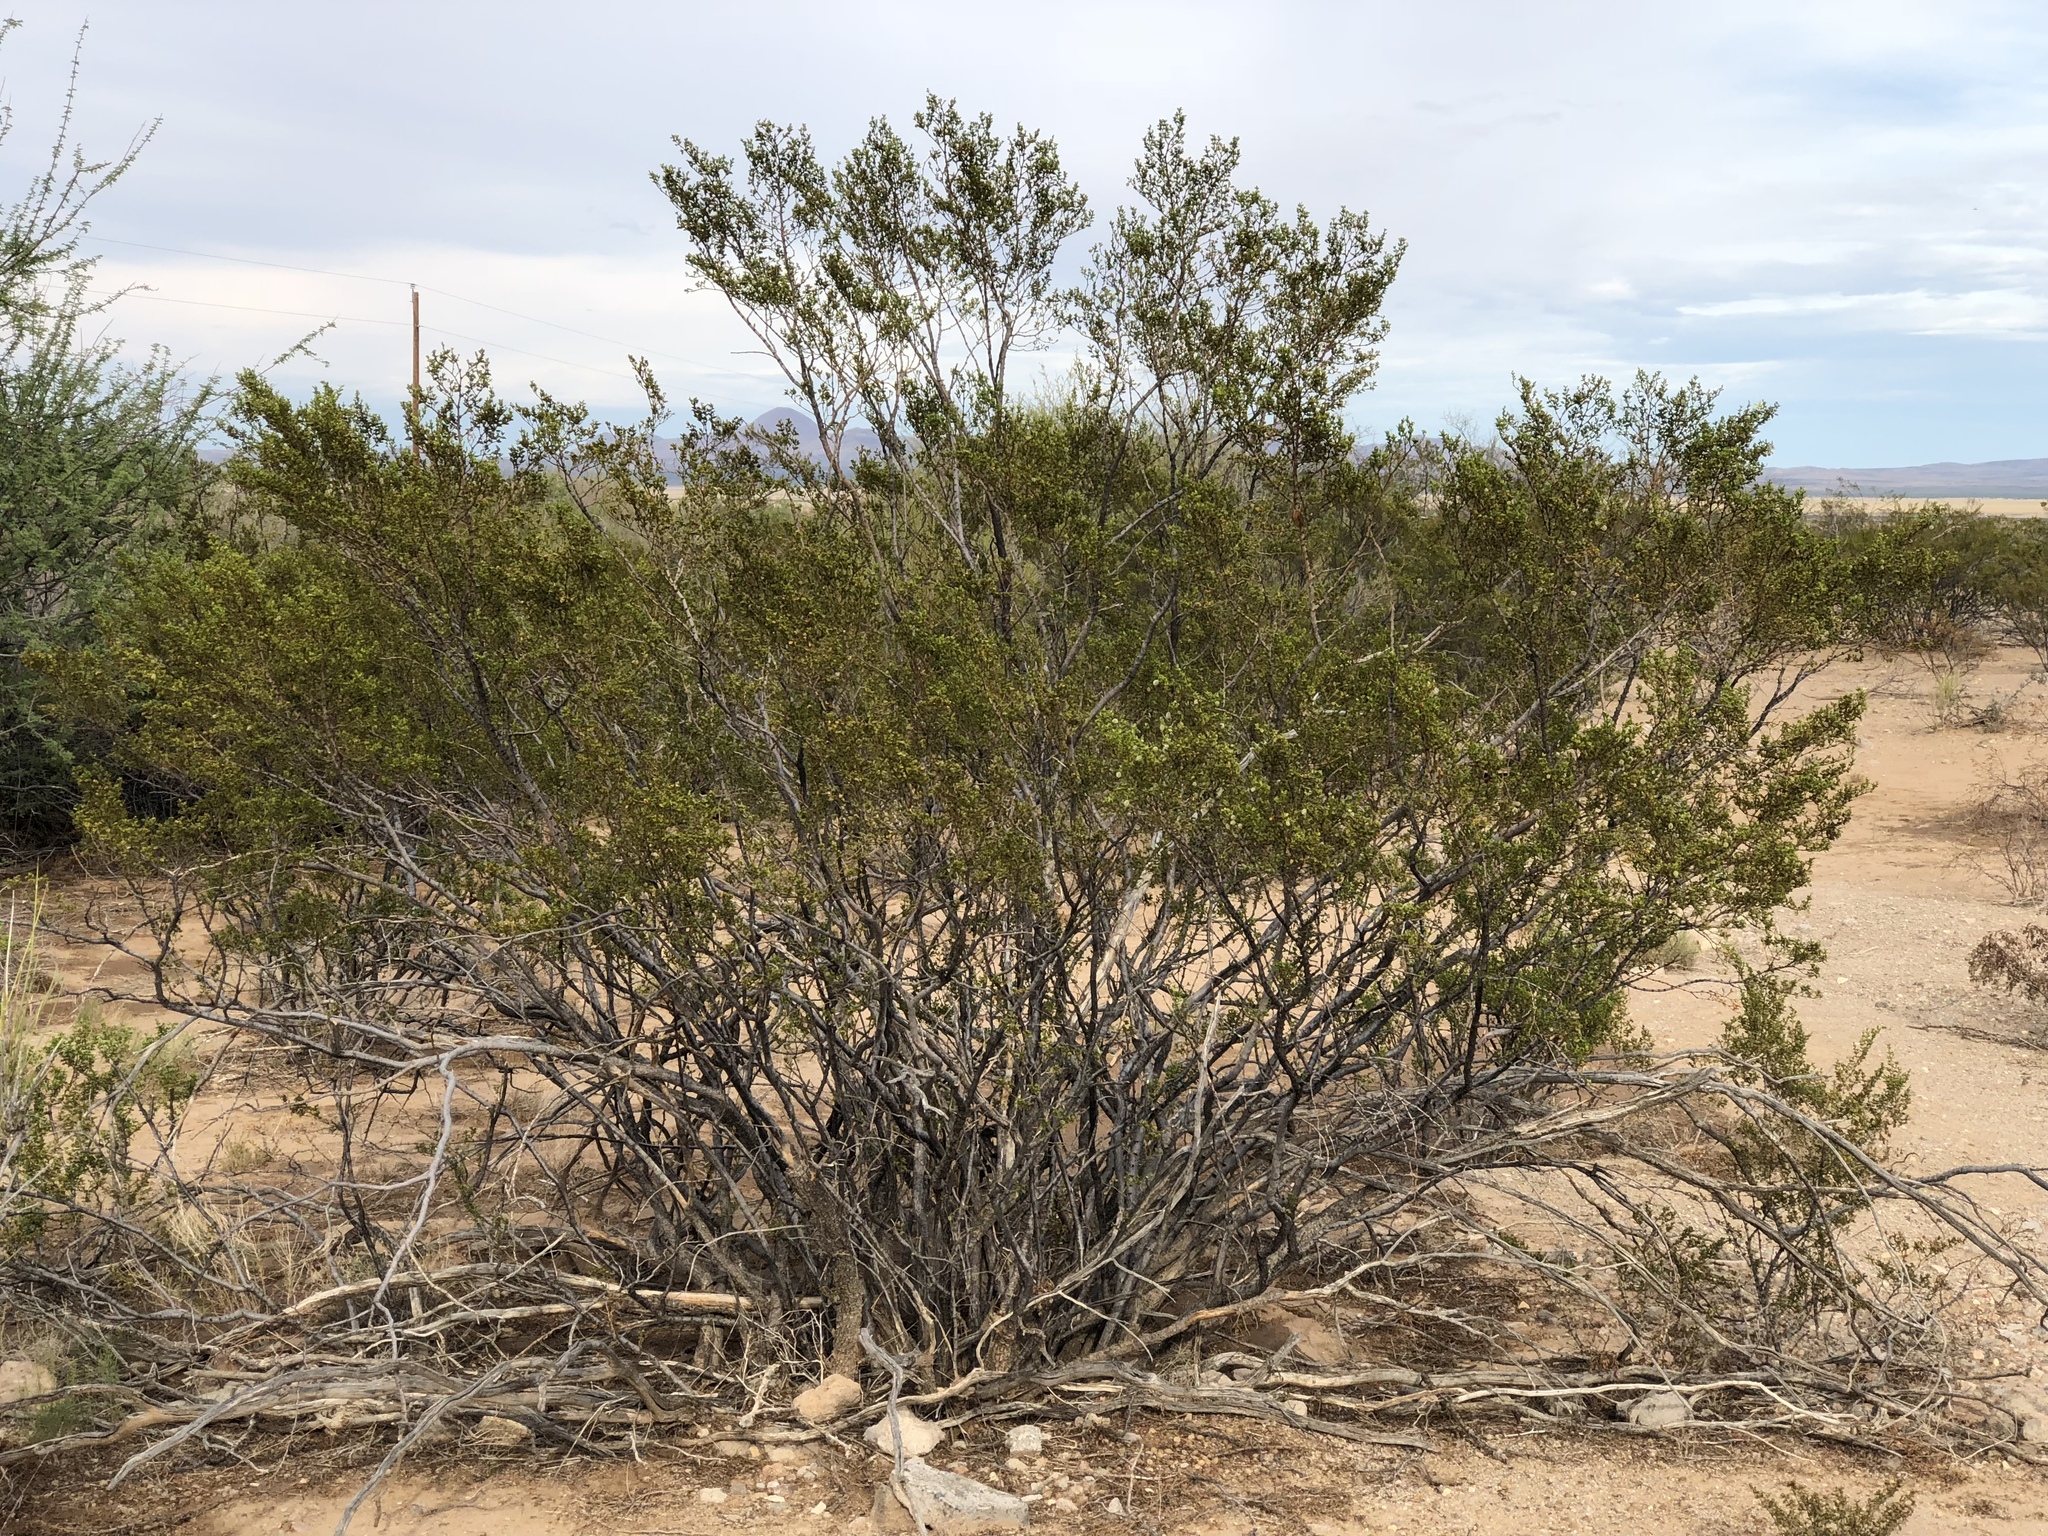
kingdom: Plantae
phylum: Tracheophyta
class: Magnoliopsida
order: Zygophyllales
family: Zygophyllaceae
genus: Larrea
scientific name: Larrea tridentata
